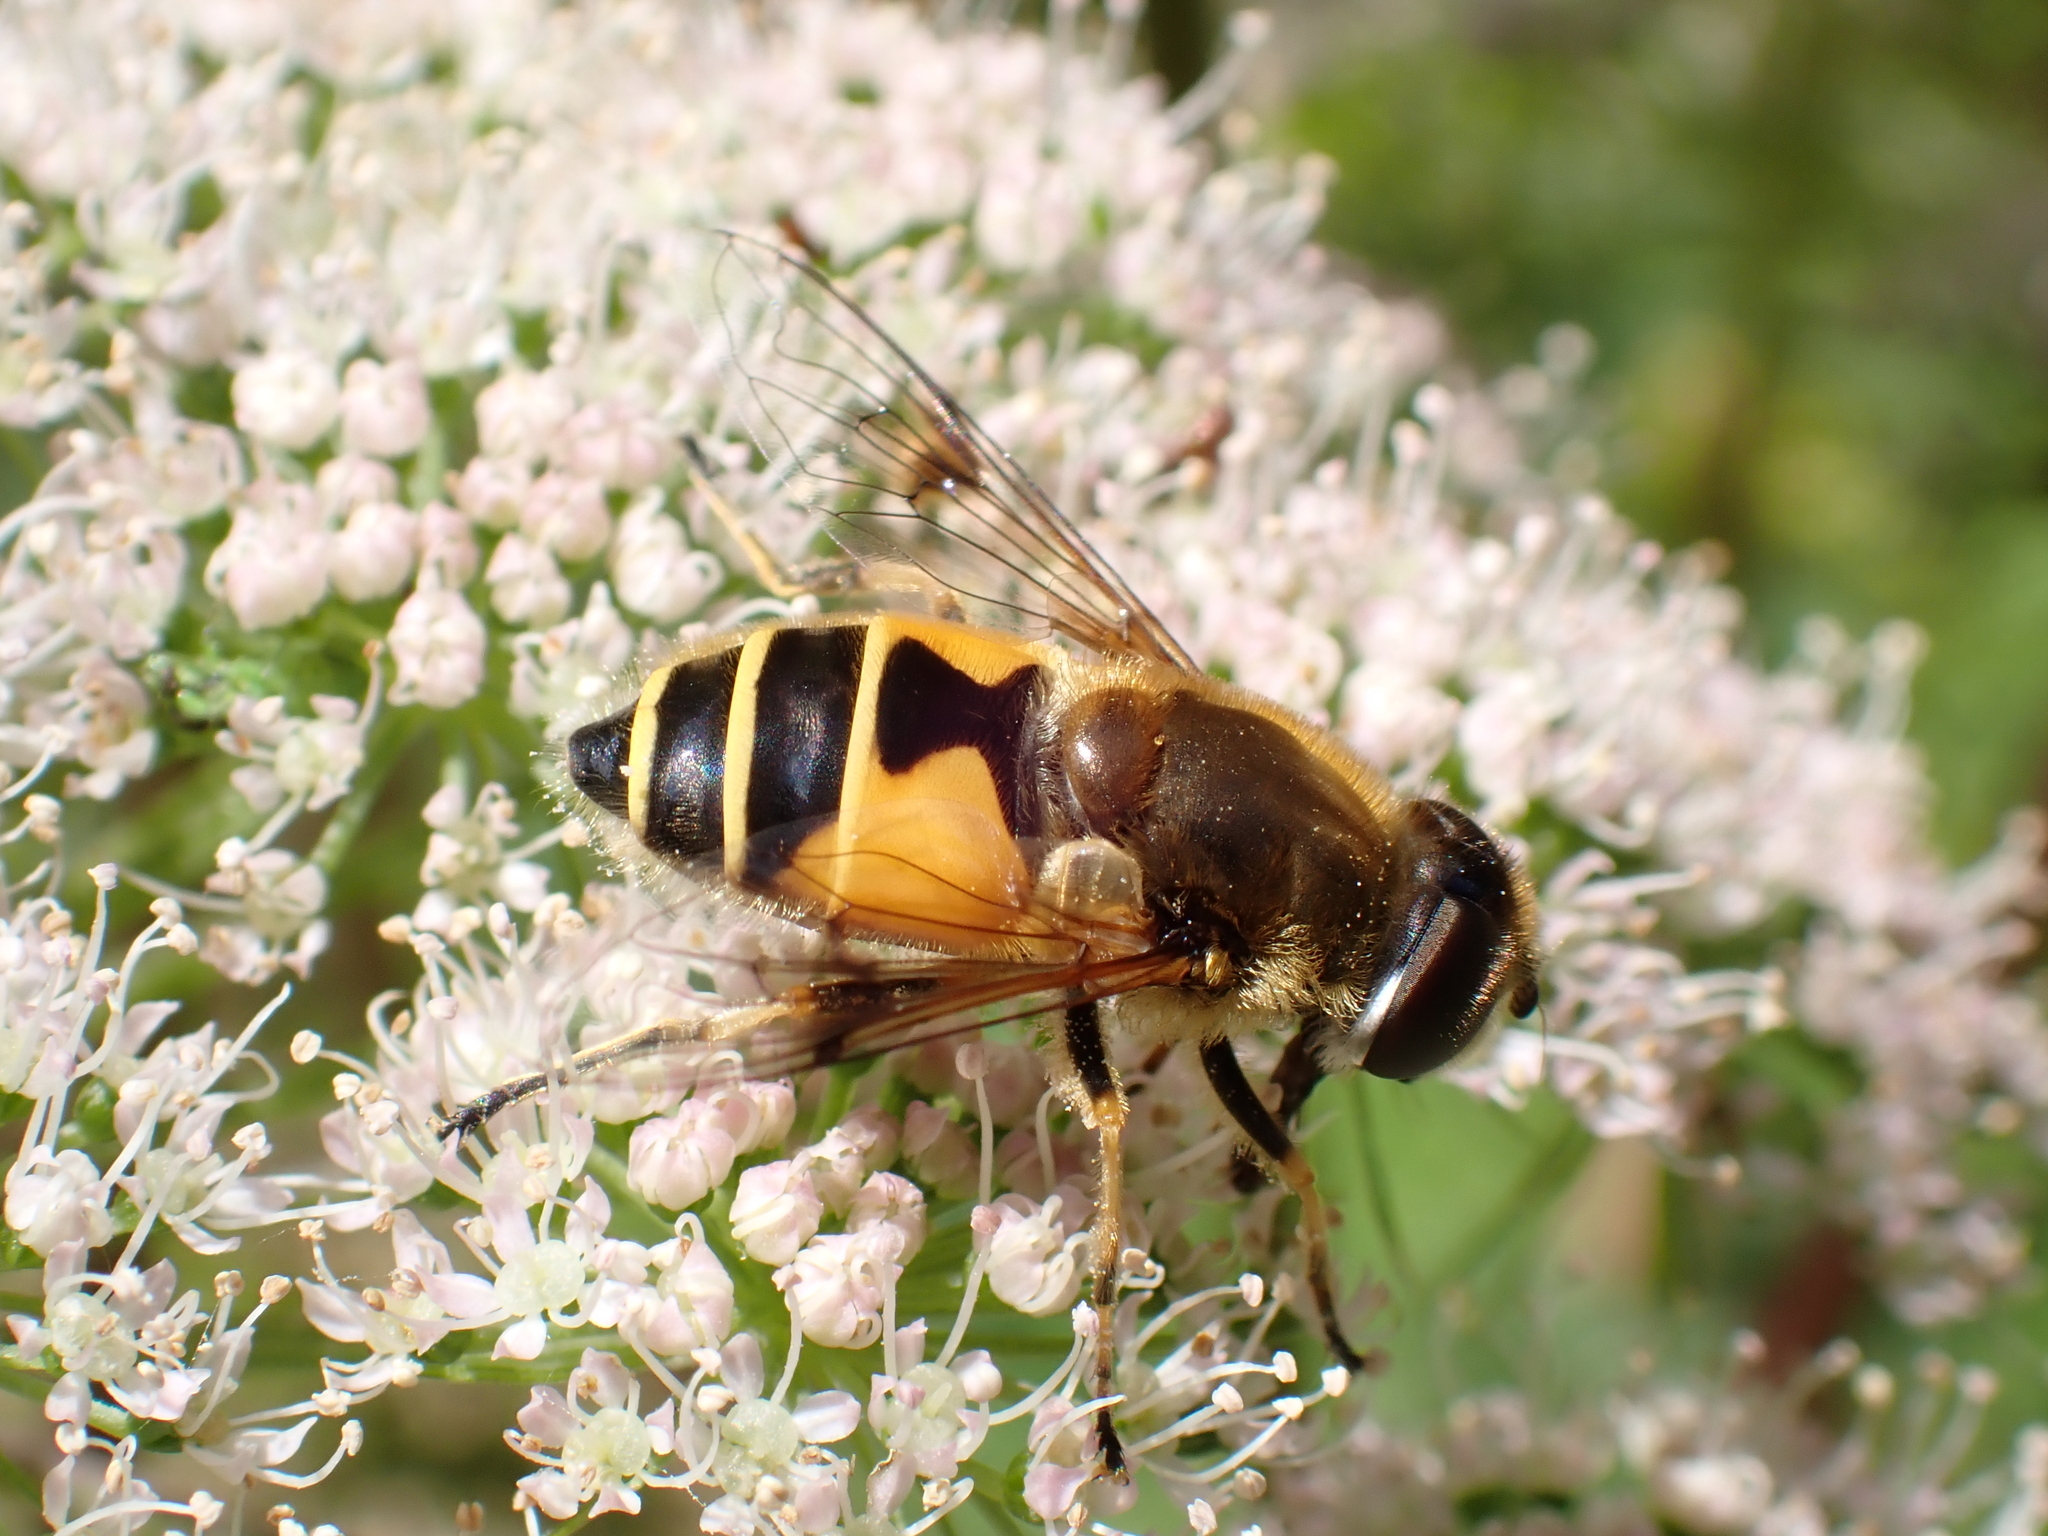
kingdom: Animalia
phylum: Arthropoda
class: Insecta
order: Diptera
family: Syrphidae
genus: Cheilosia
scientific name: Cheilosia morio
